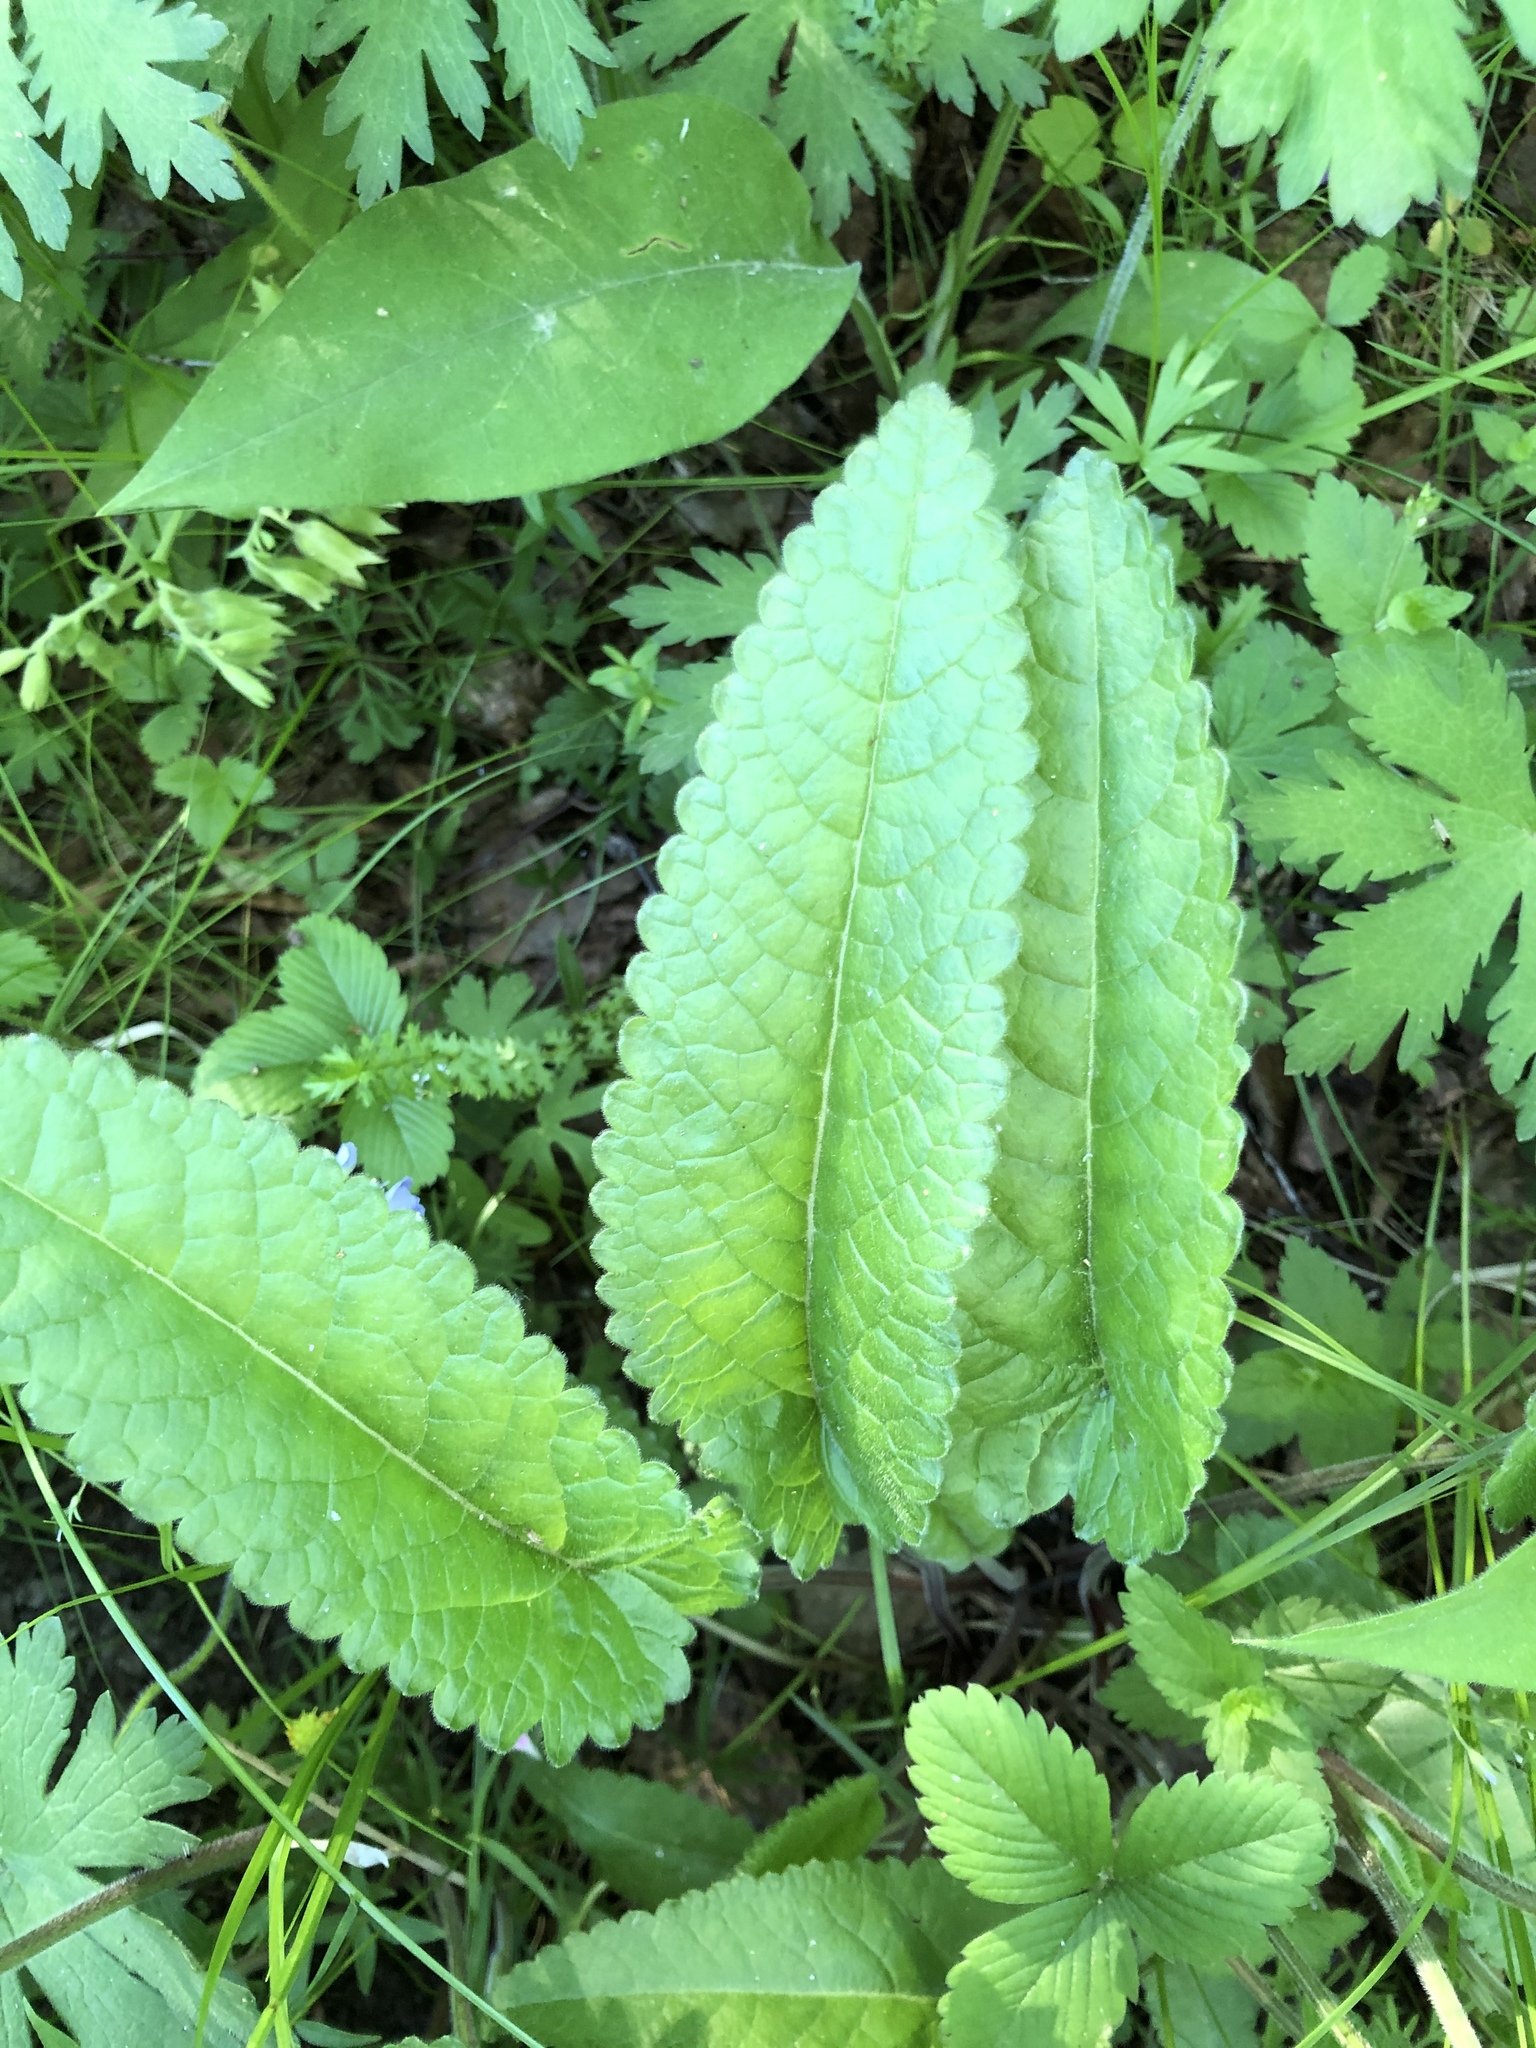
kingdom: Plantae
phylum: Tracheophyta
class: Magnoliopsida
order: Lamiales
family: Lamiaceae
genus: Betonica
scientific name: Betonica officinalis
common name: Bishop's-wort
